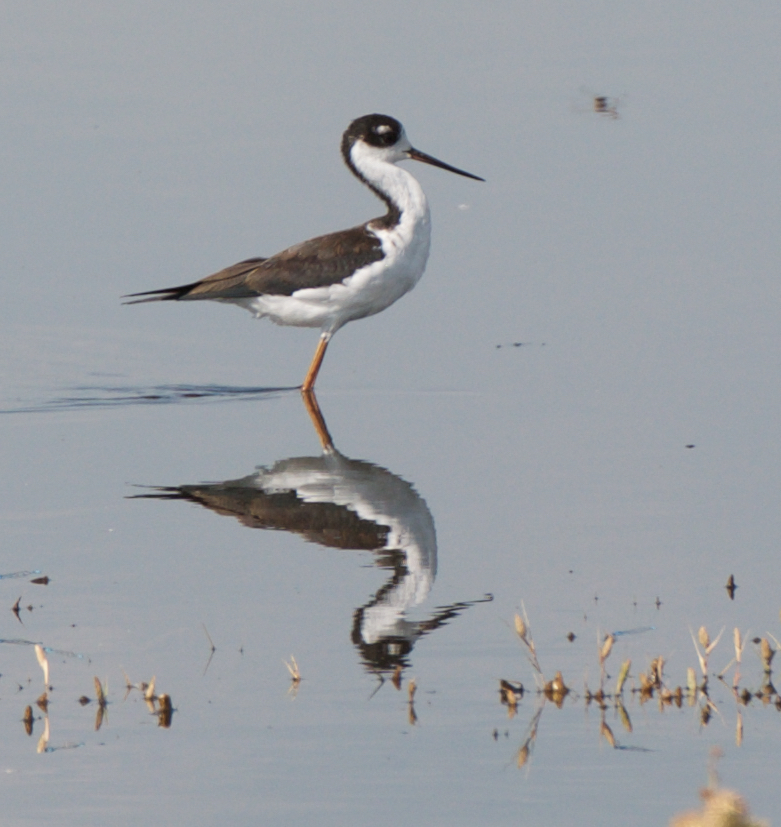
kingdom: Animalia
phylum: Chordata
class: Aves
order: Charadriiformes
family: Recurvirostridae
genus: Himantopus
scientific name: Himantopus mexicanus
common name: Black-necked stilt
